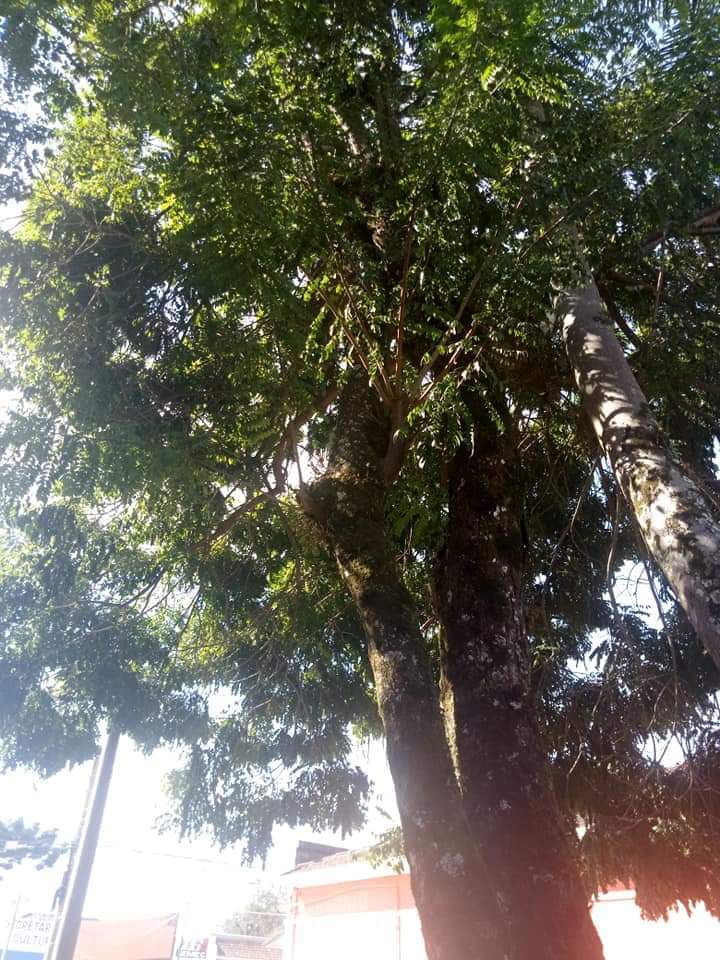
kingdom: Plantae
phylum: Tracheophyta
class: Magnoliopsida
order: Fabales
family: Fabaceae
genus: Cassia
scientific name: Cassia leptophylla
